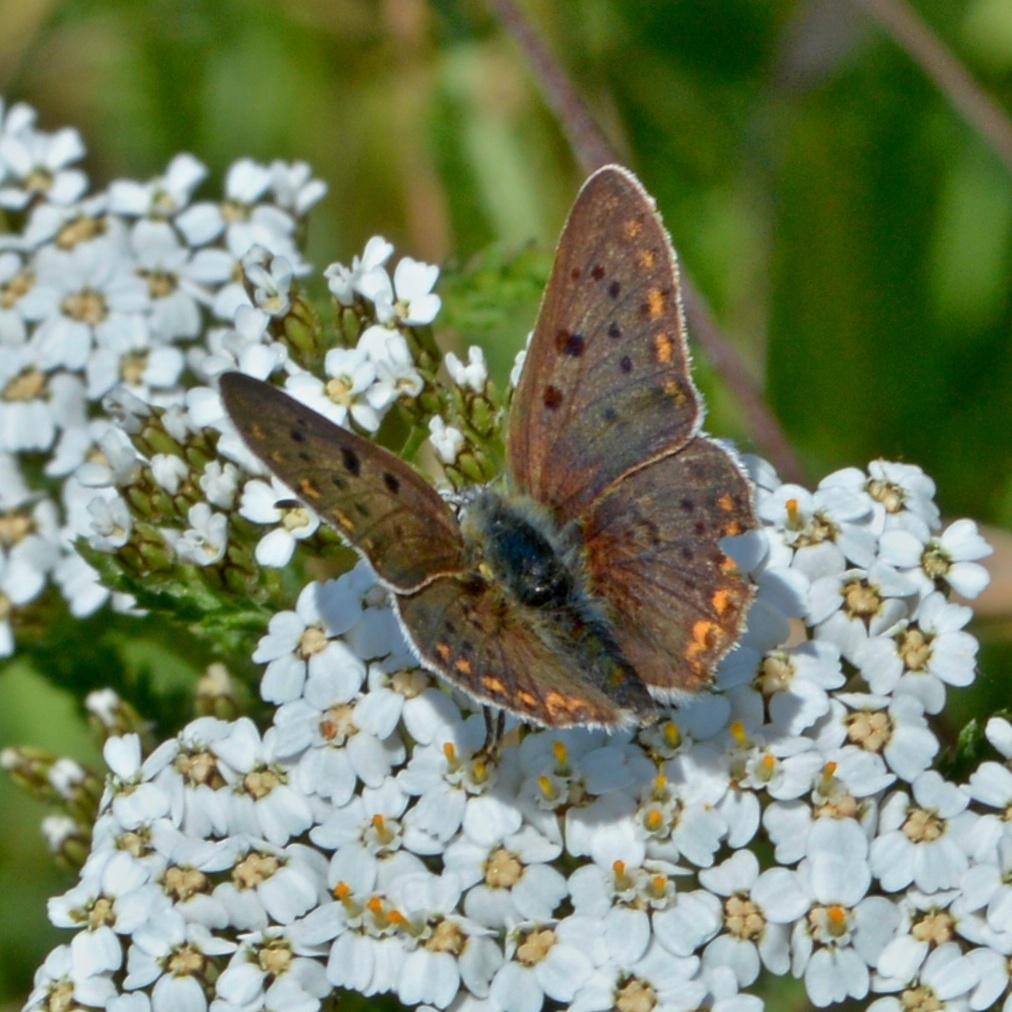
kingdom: Animalia
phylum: Arthropoda
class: Insecta
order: Lepidoptera
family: Lycaenidae
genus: Loweia
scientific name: Loweia tityrus
